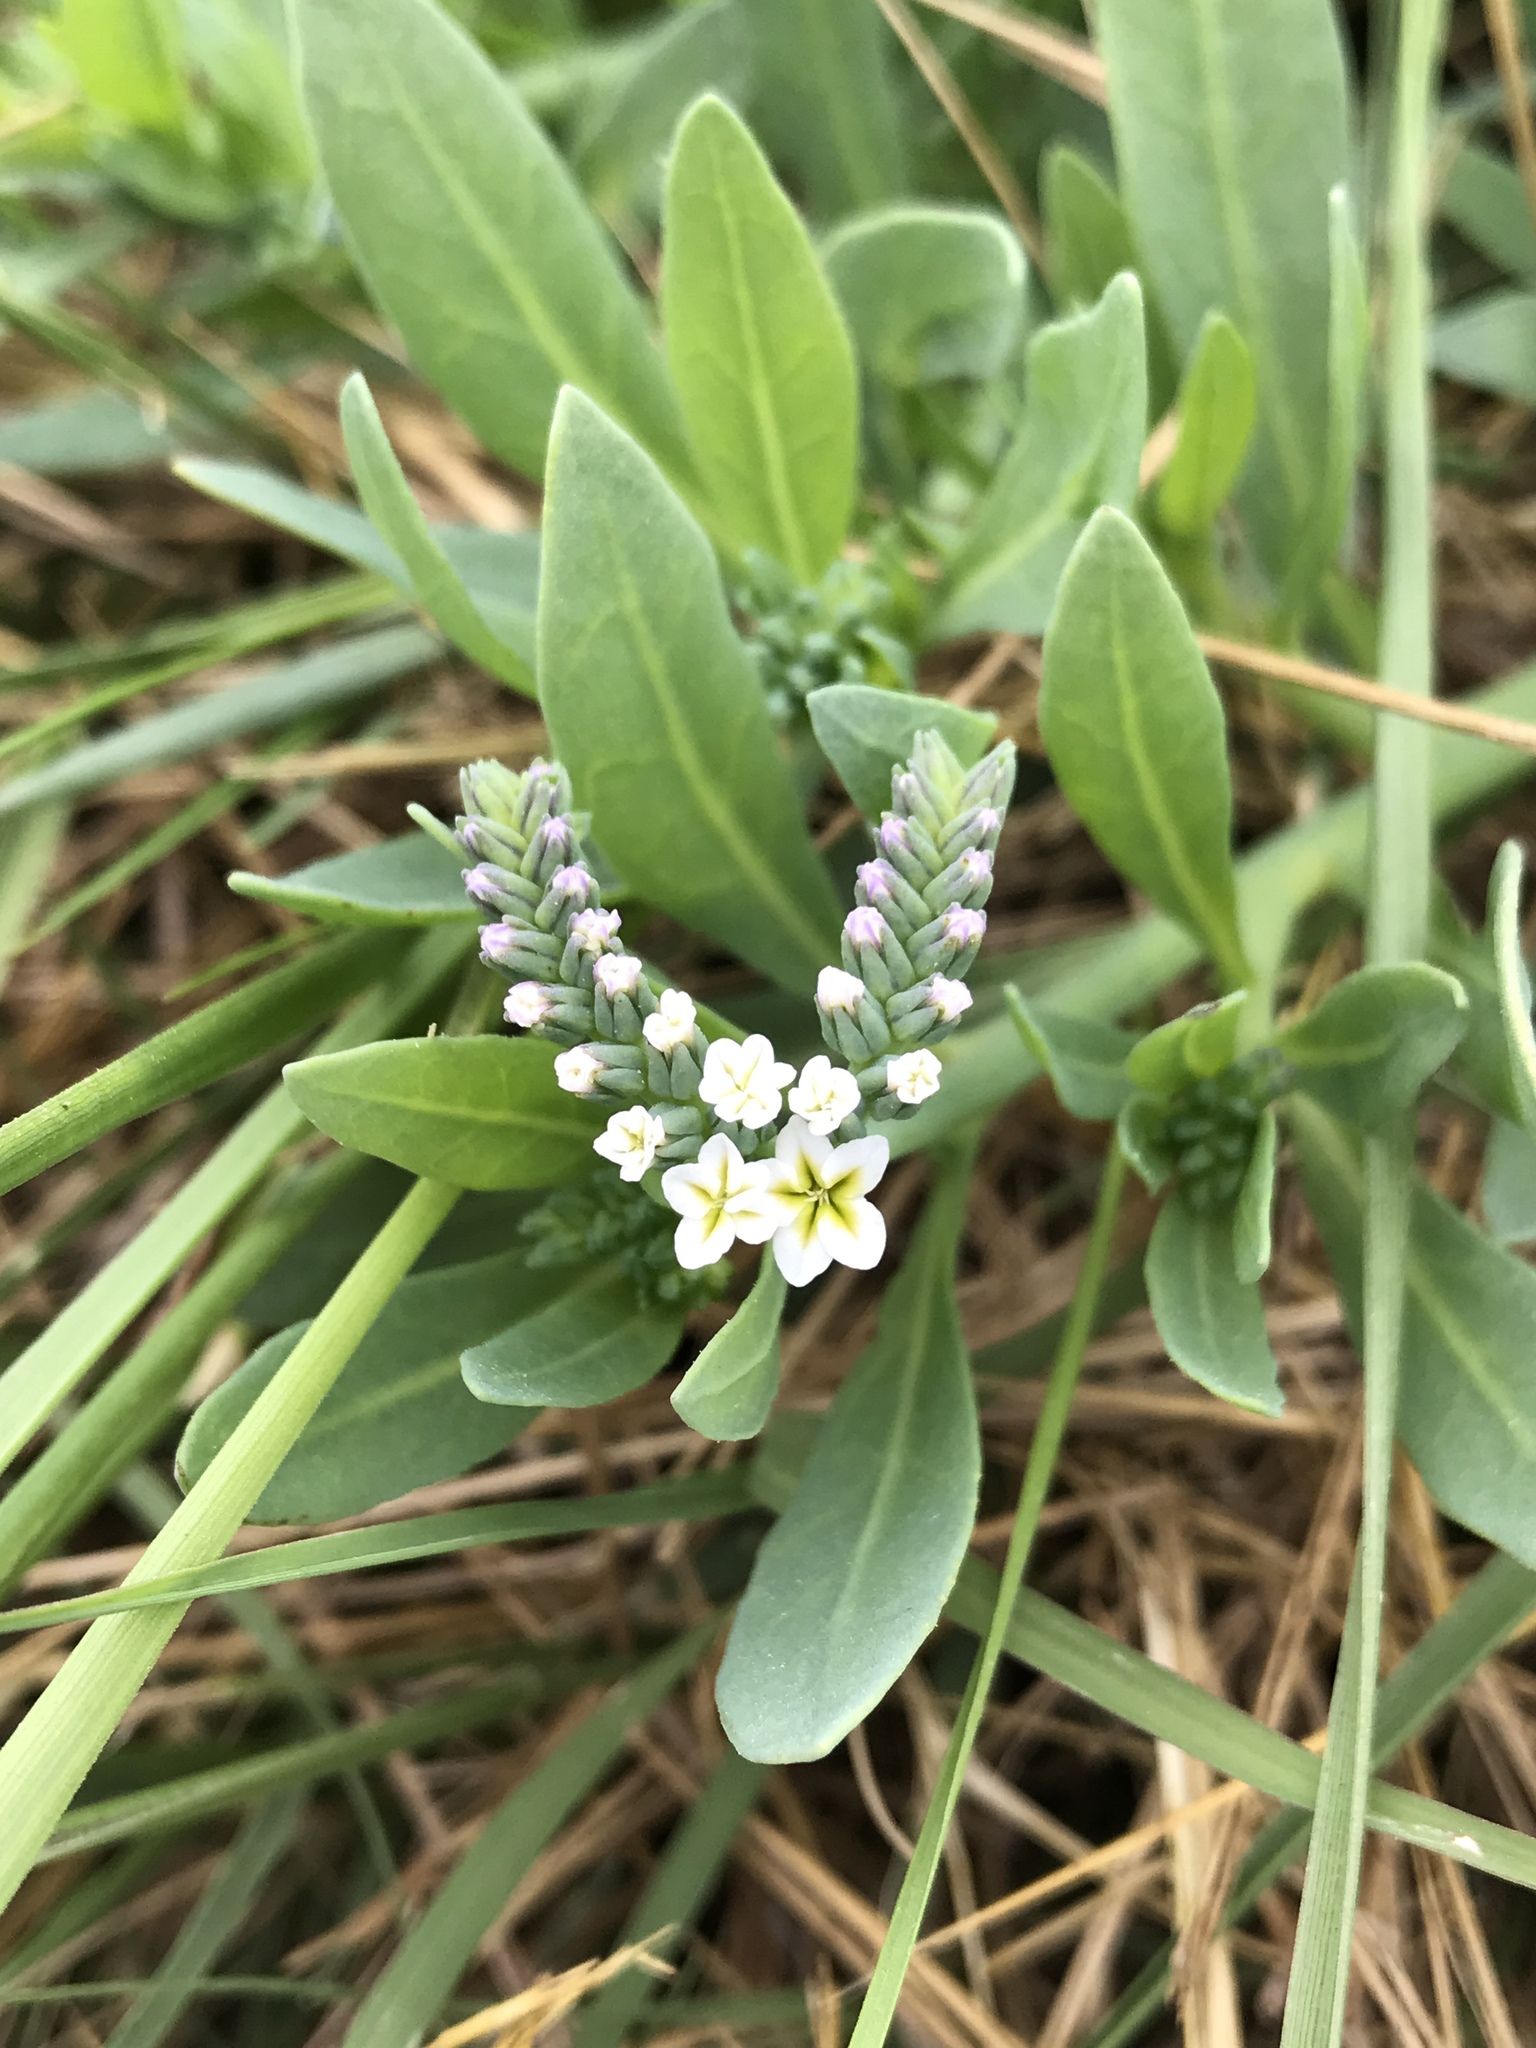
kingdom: Plantae
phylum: Tracheophyta
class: Magnoliopsida
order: Boraginales
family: Heliotropiaceae
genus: Heliotropium
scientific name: Heliotropium curassavicum
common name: Seaside heliotrope
